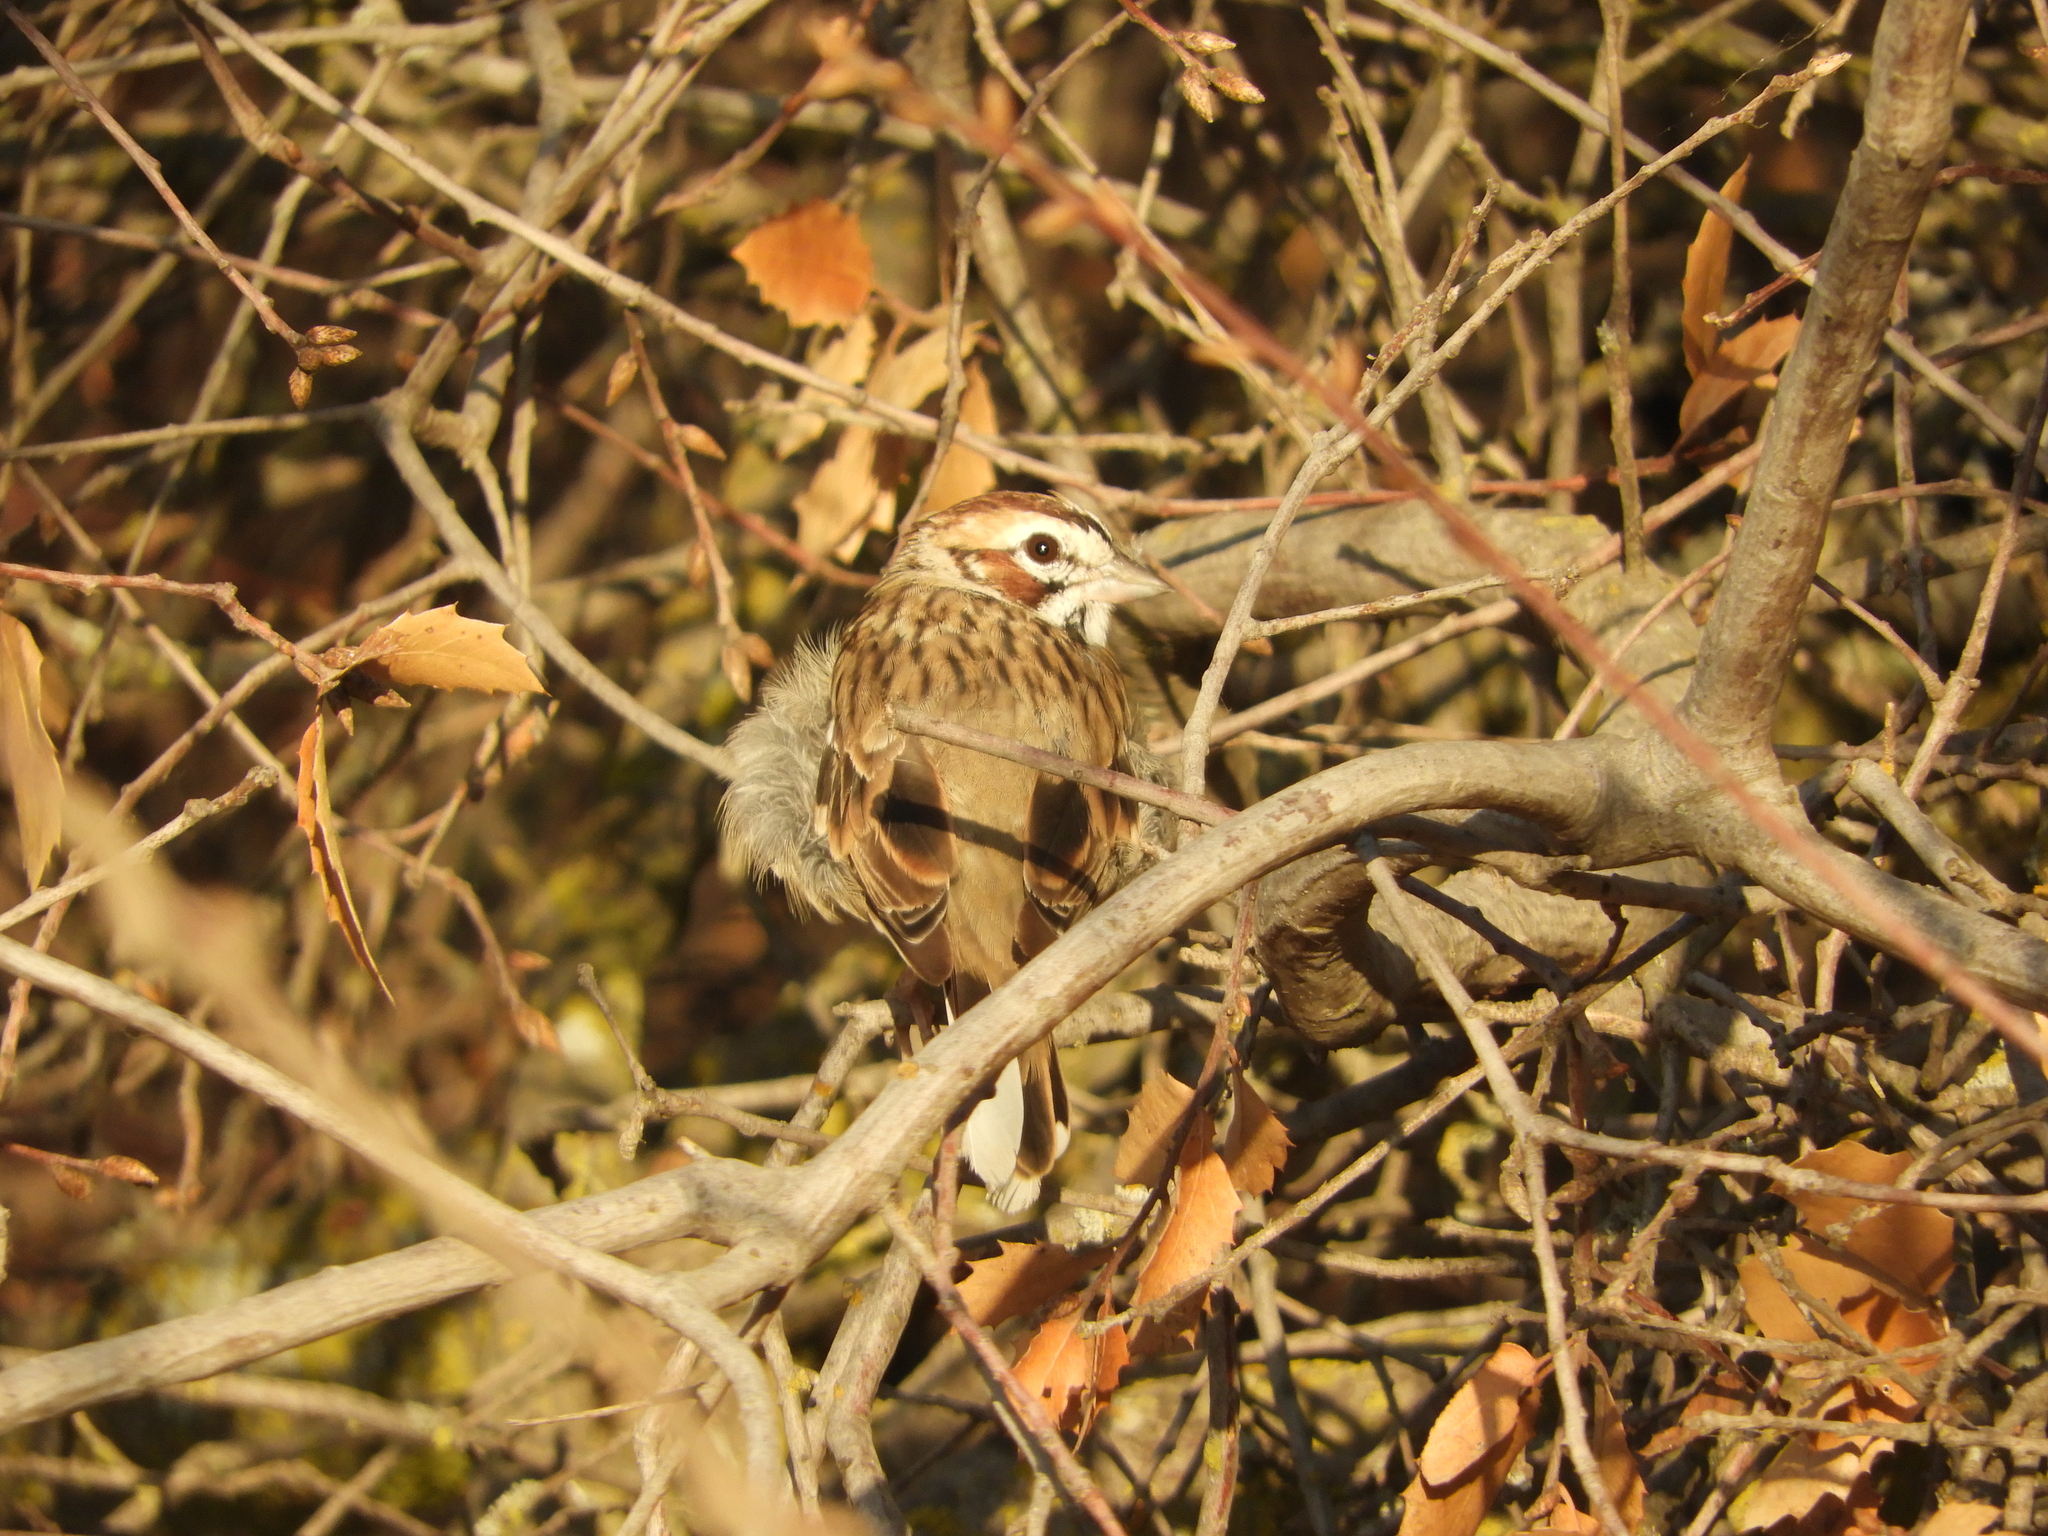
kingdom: Animalia
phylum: Chordata
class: Aves
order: Passeriformes
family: Passerellidae
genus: Chondestes
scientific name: Chondestes grammacus
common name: Lark sparrow
